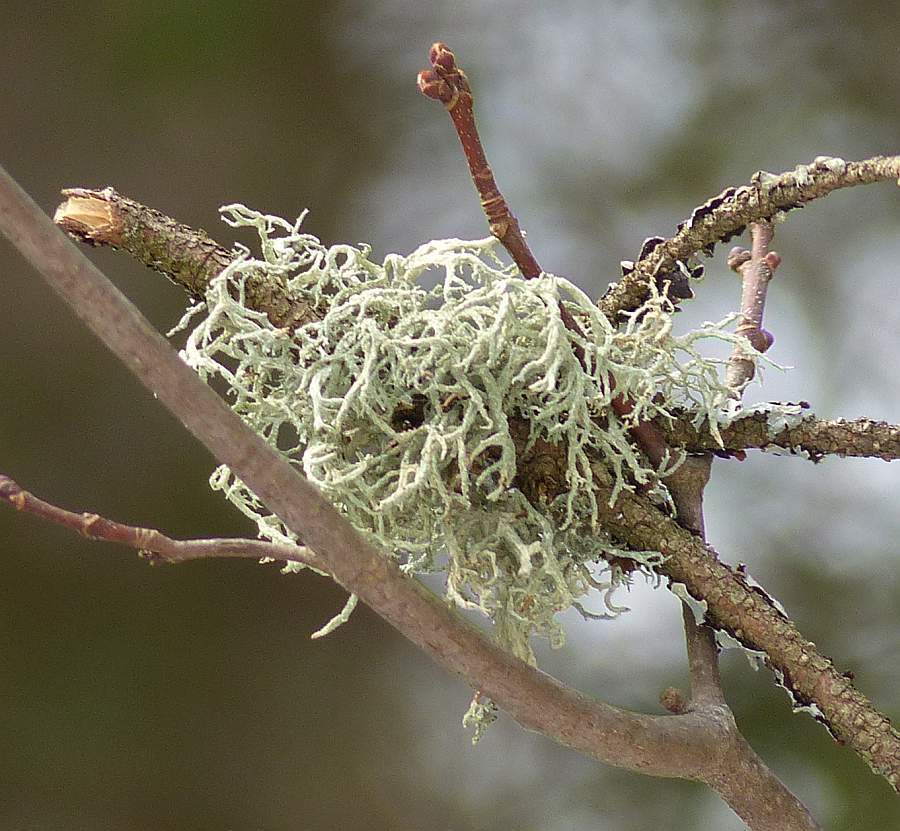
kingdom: Fungi
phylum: Ascomycota
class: Lecanoromycetes
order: Lecanorales
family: Parmeliaceae
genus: Evernia
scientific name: Evernia mesomorpha
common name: Boreal oak moss lichen
